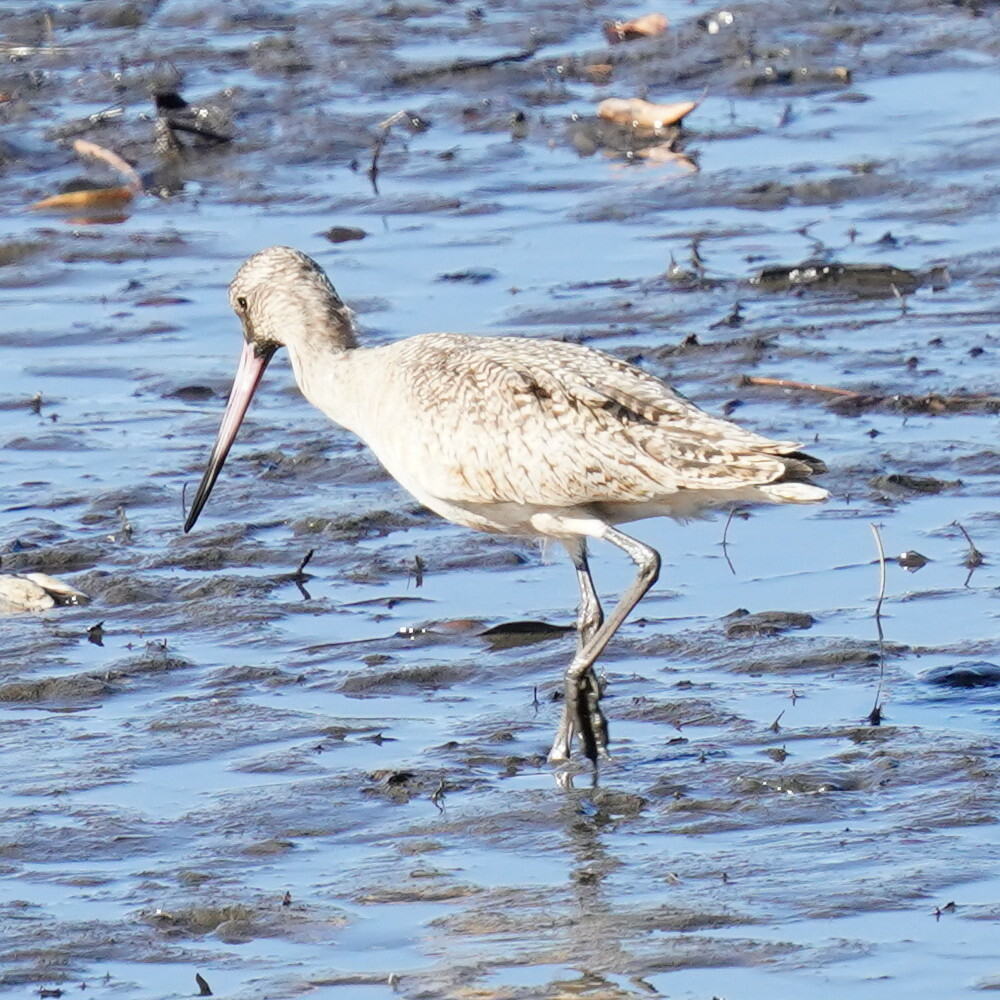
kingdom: Animalia
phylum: Chordata
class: Aves
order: Charadriiformes
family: Scolopacidae
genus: Limosa
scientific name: Limosa fedoa
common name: Marbled godwit
